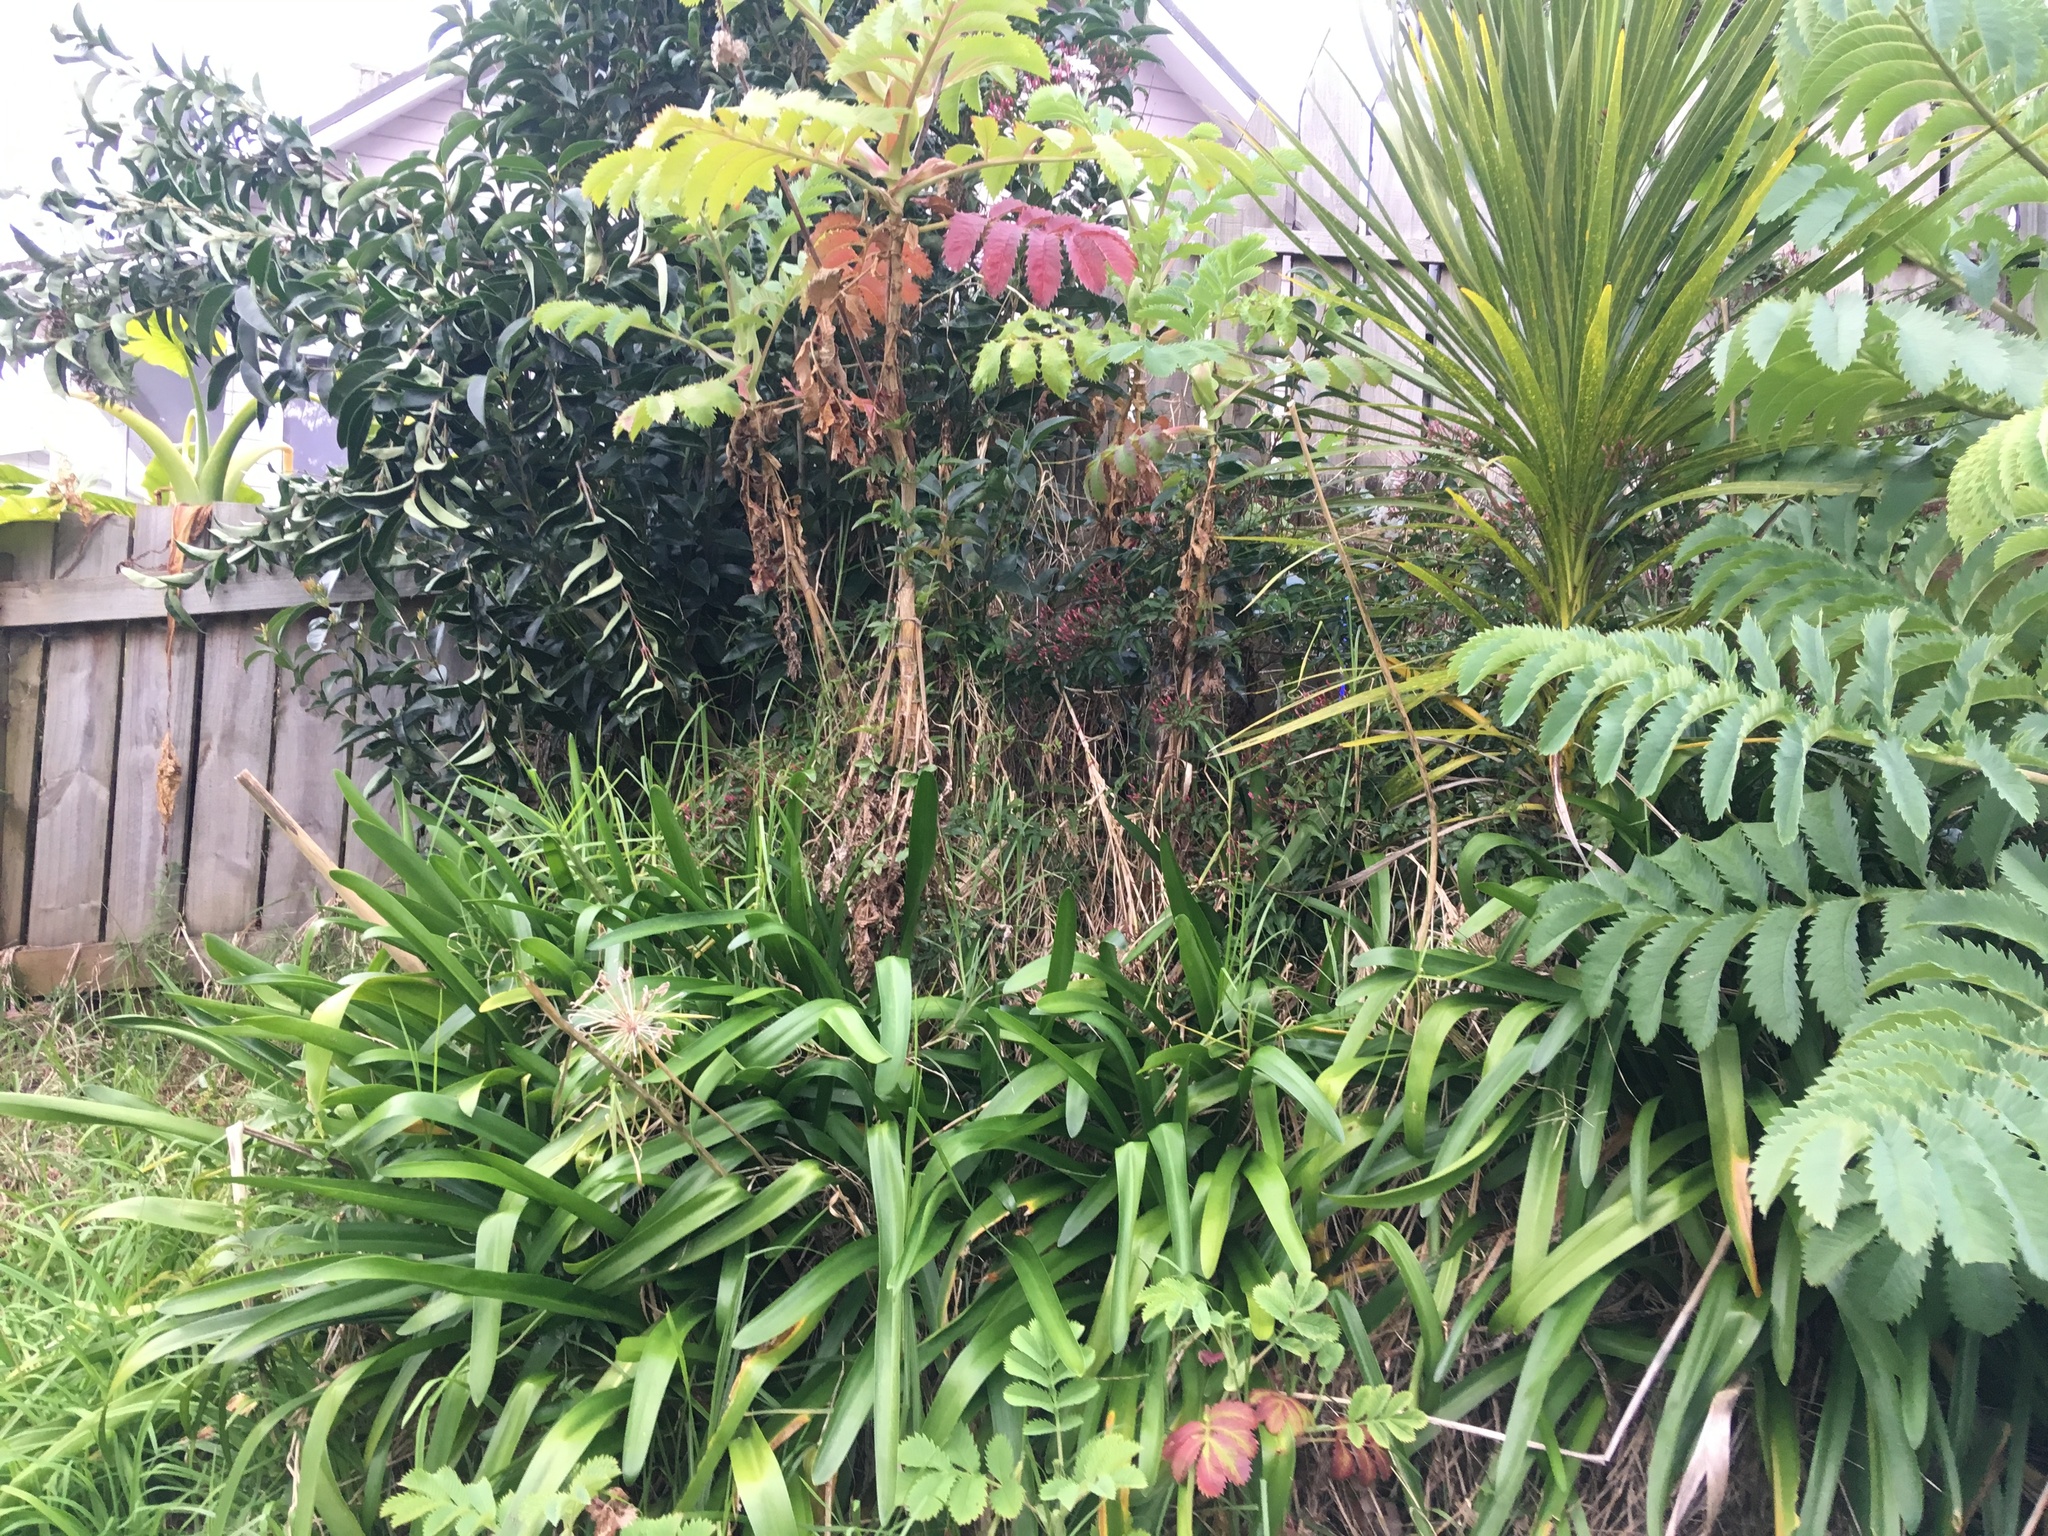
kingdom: Plantae
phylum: Tracheophyta
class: Liliopsida
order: Asparagales
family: Amaryllidaceae
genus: Agapanthus
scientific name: Agapanthus praecox
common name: African-lily
